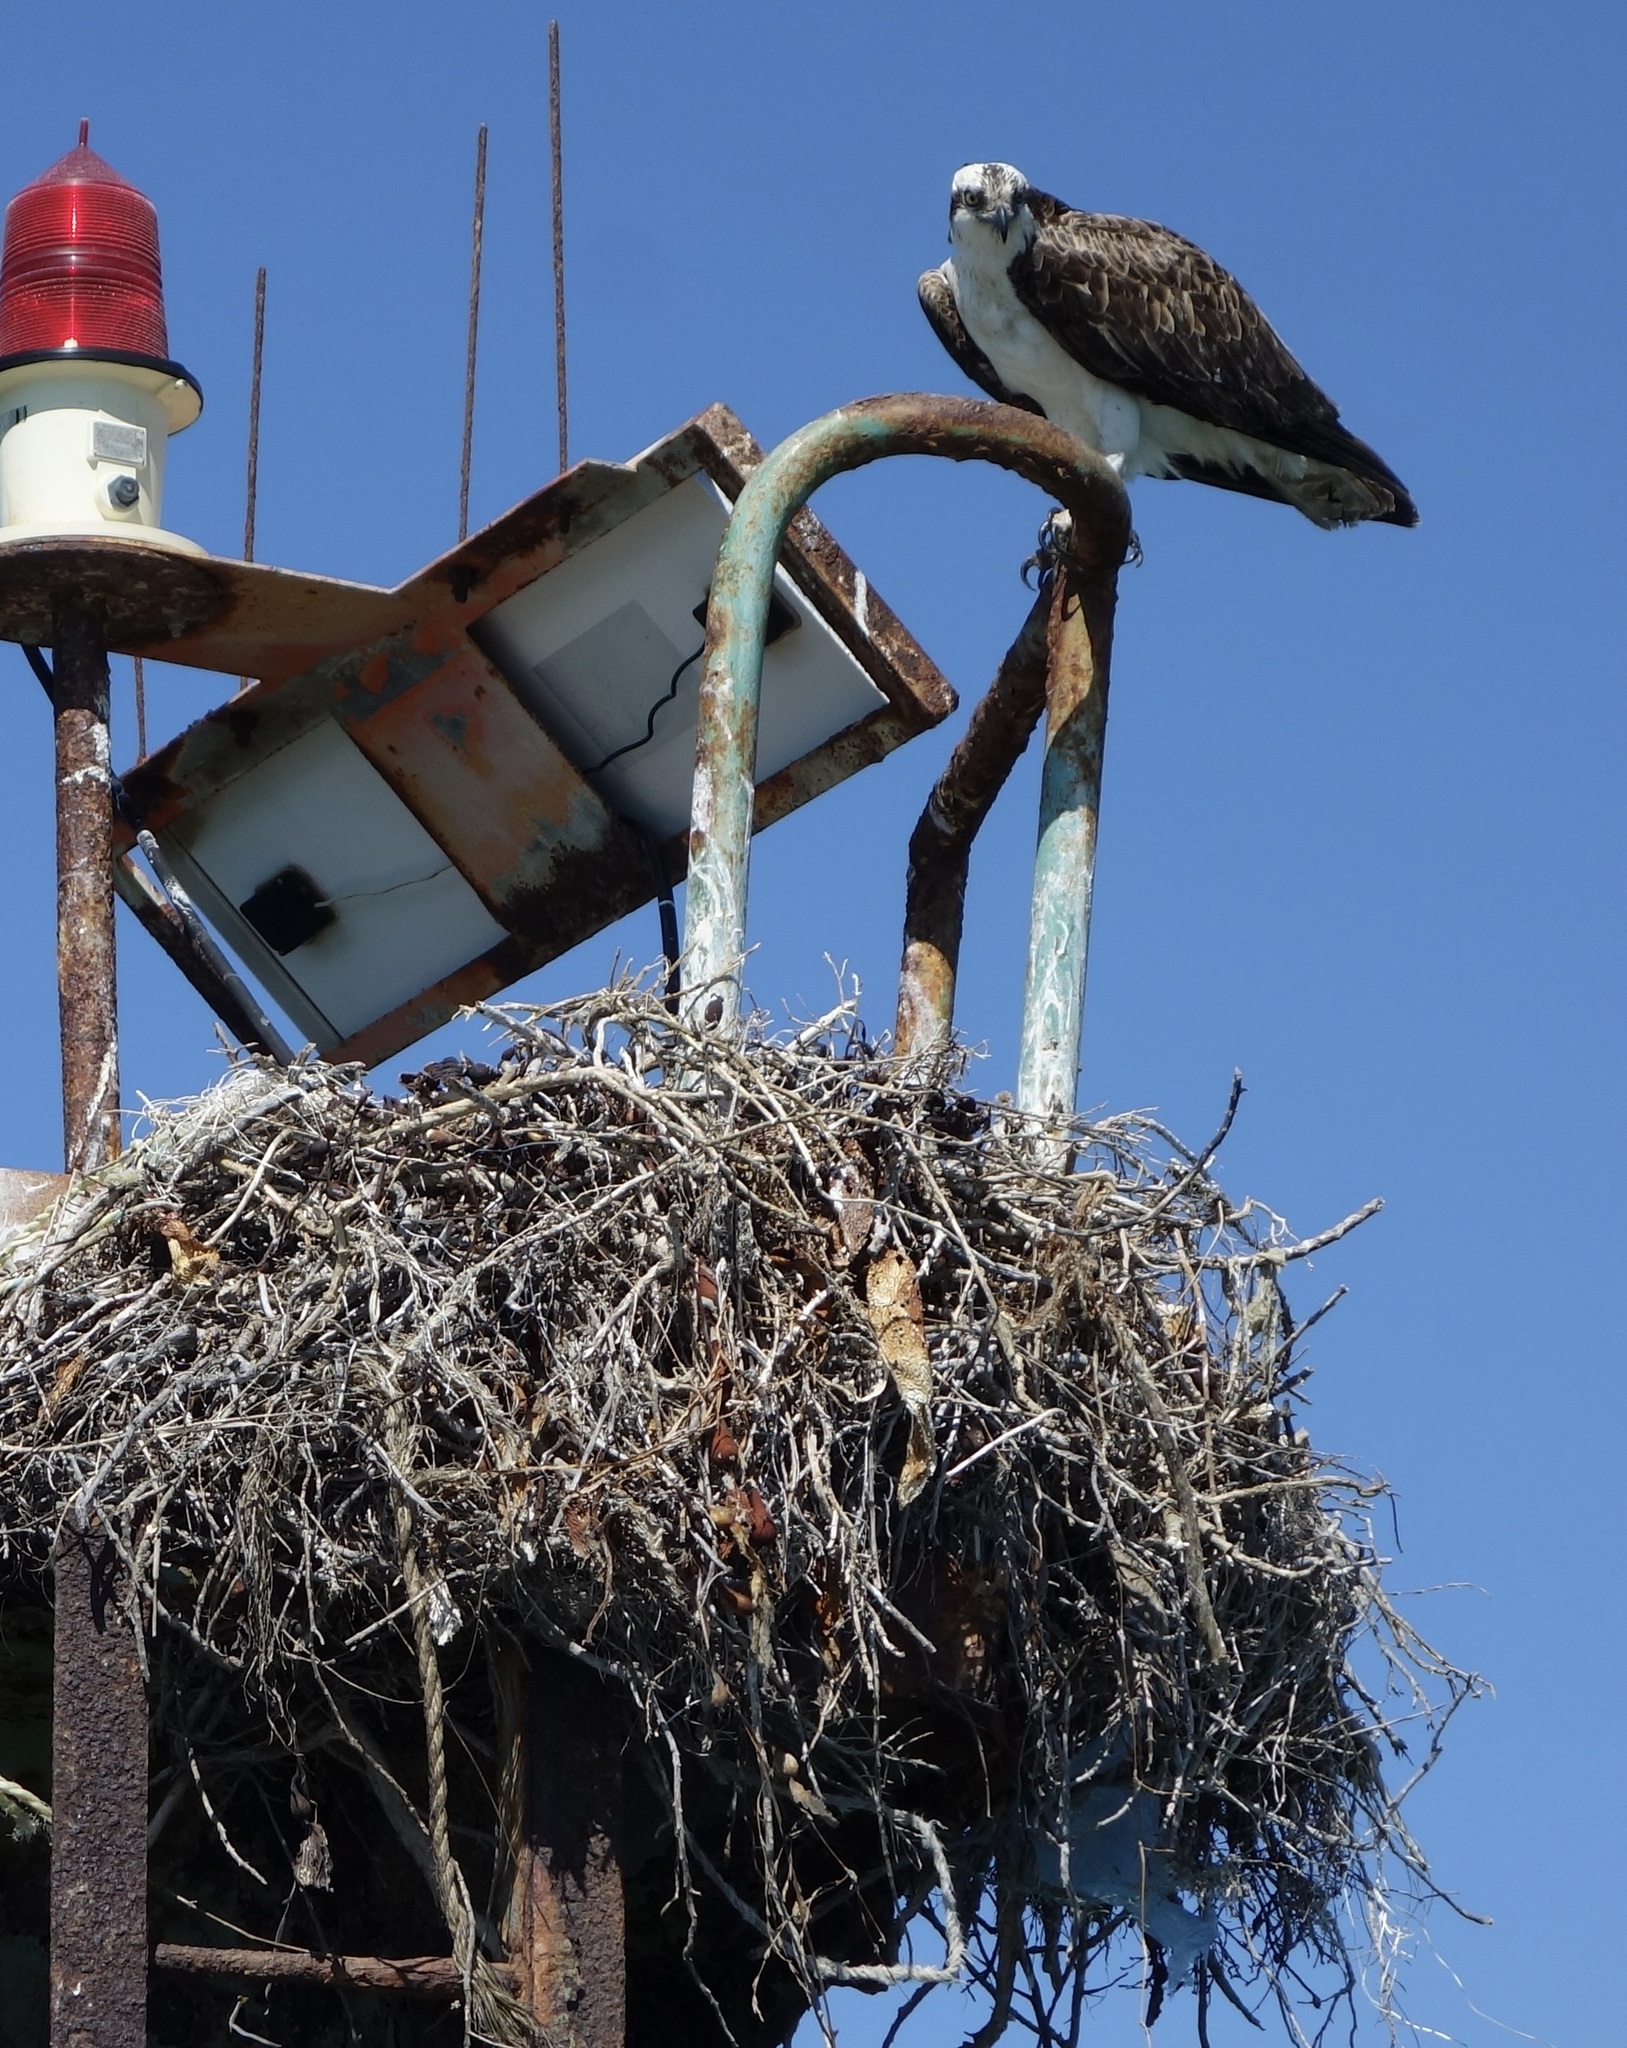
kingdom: Animalia
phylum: Chordata
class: Aves
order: Accipitriformes
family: Pandionidae
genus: Pandion
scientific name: Pandion haliaetus
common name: Osprey
